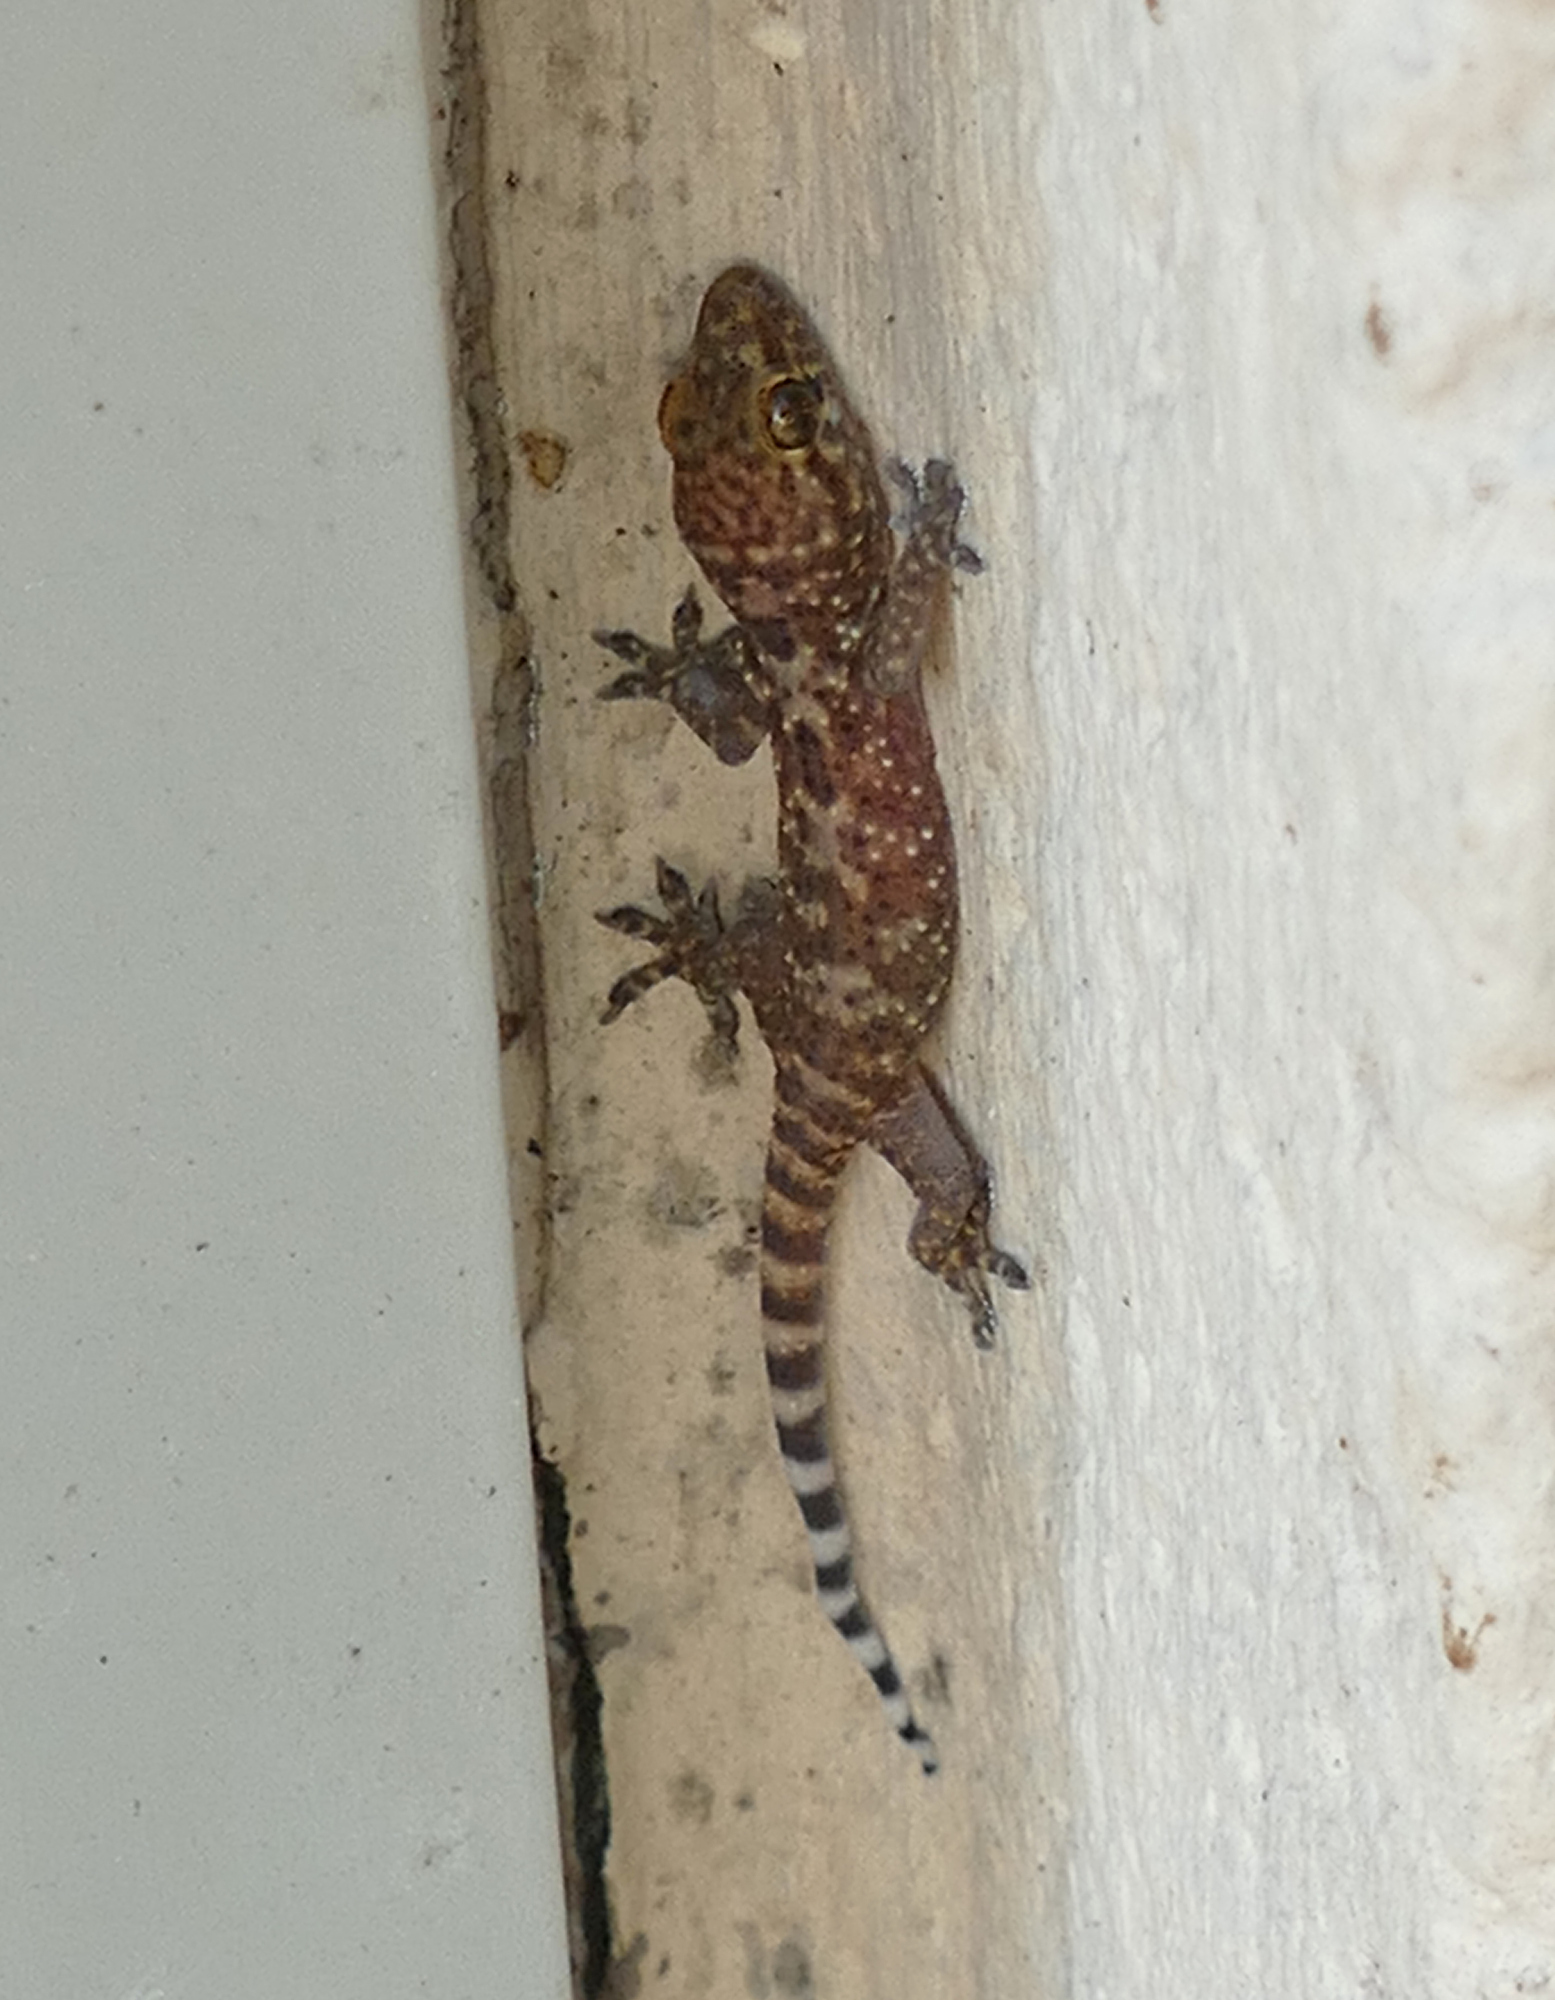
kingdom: Animalia
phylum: Chordata
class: Squamata
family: Gekkonidae
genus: Hemidactylus
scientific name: Hemidactylus turcicus
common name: Turkish gecko
